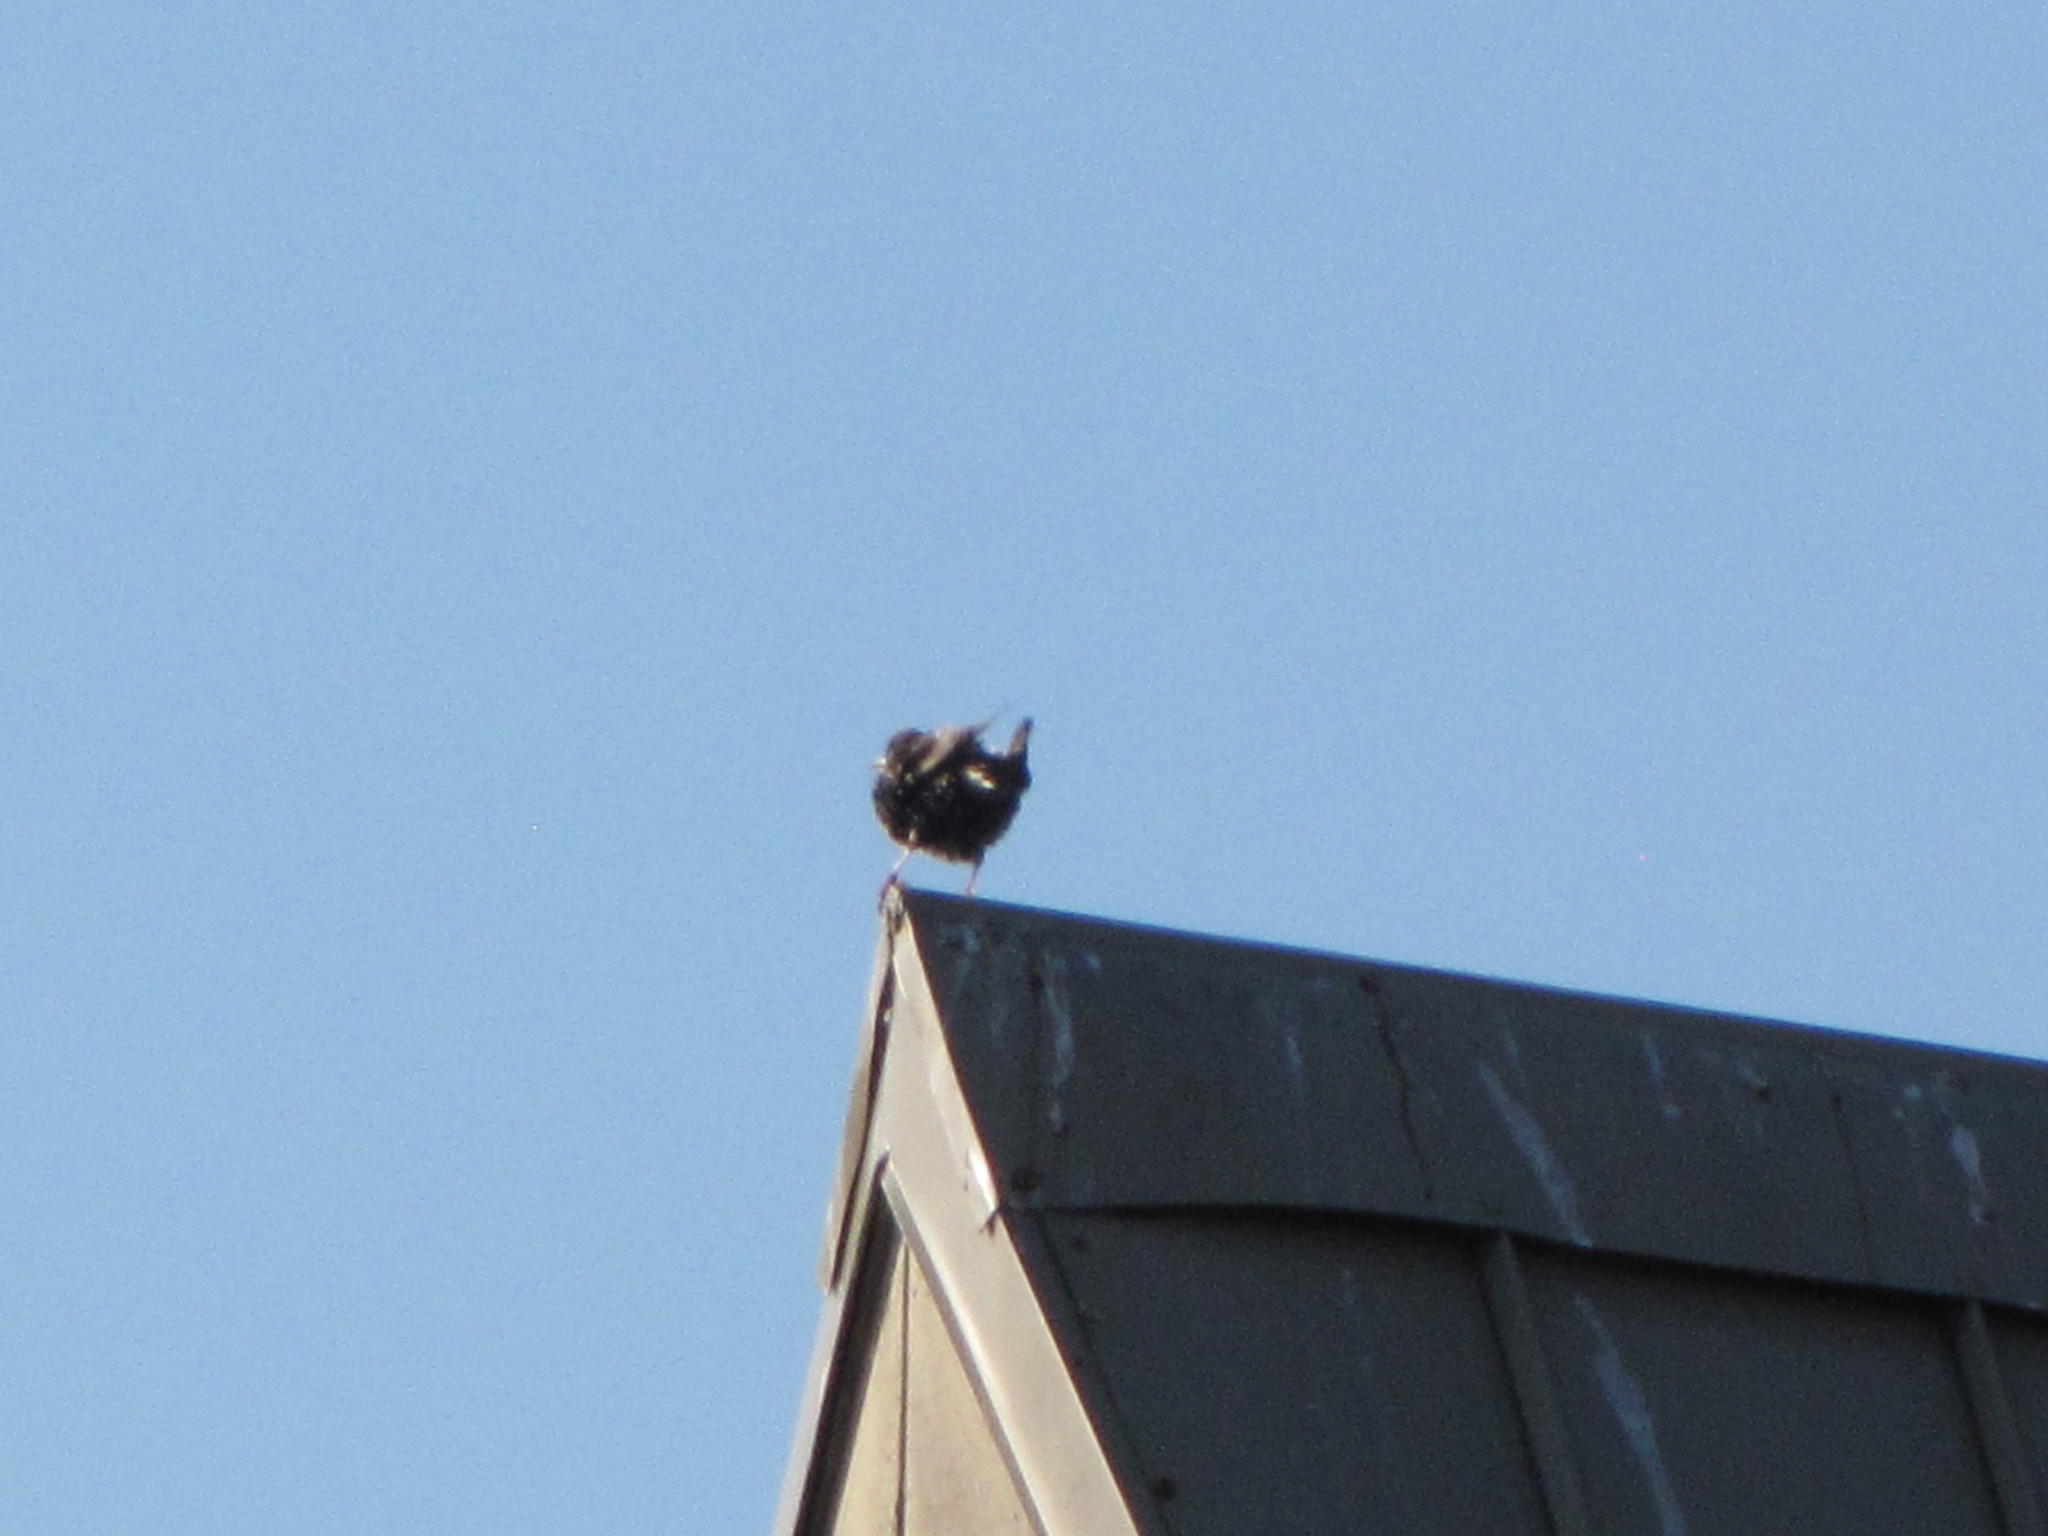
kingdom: Animalia
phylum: Chordata
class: Aves
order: Passeriformes
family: Sturnidae
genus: Sturnus
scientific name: Sturnus vulgaris
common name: Common starling
